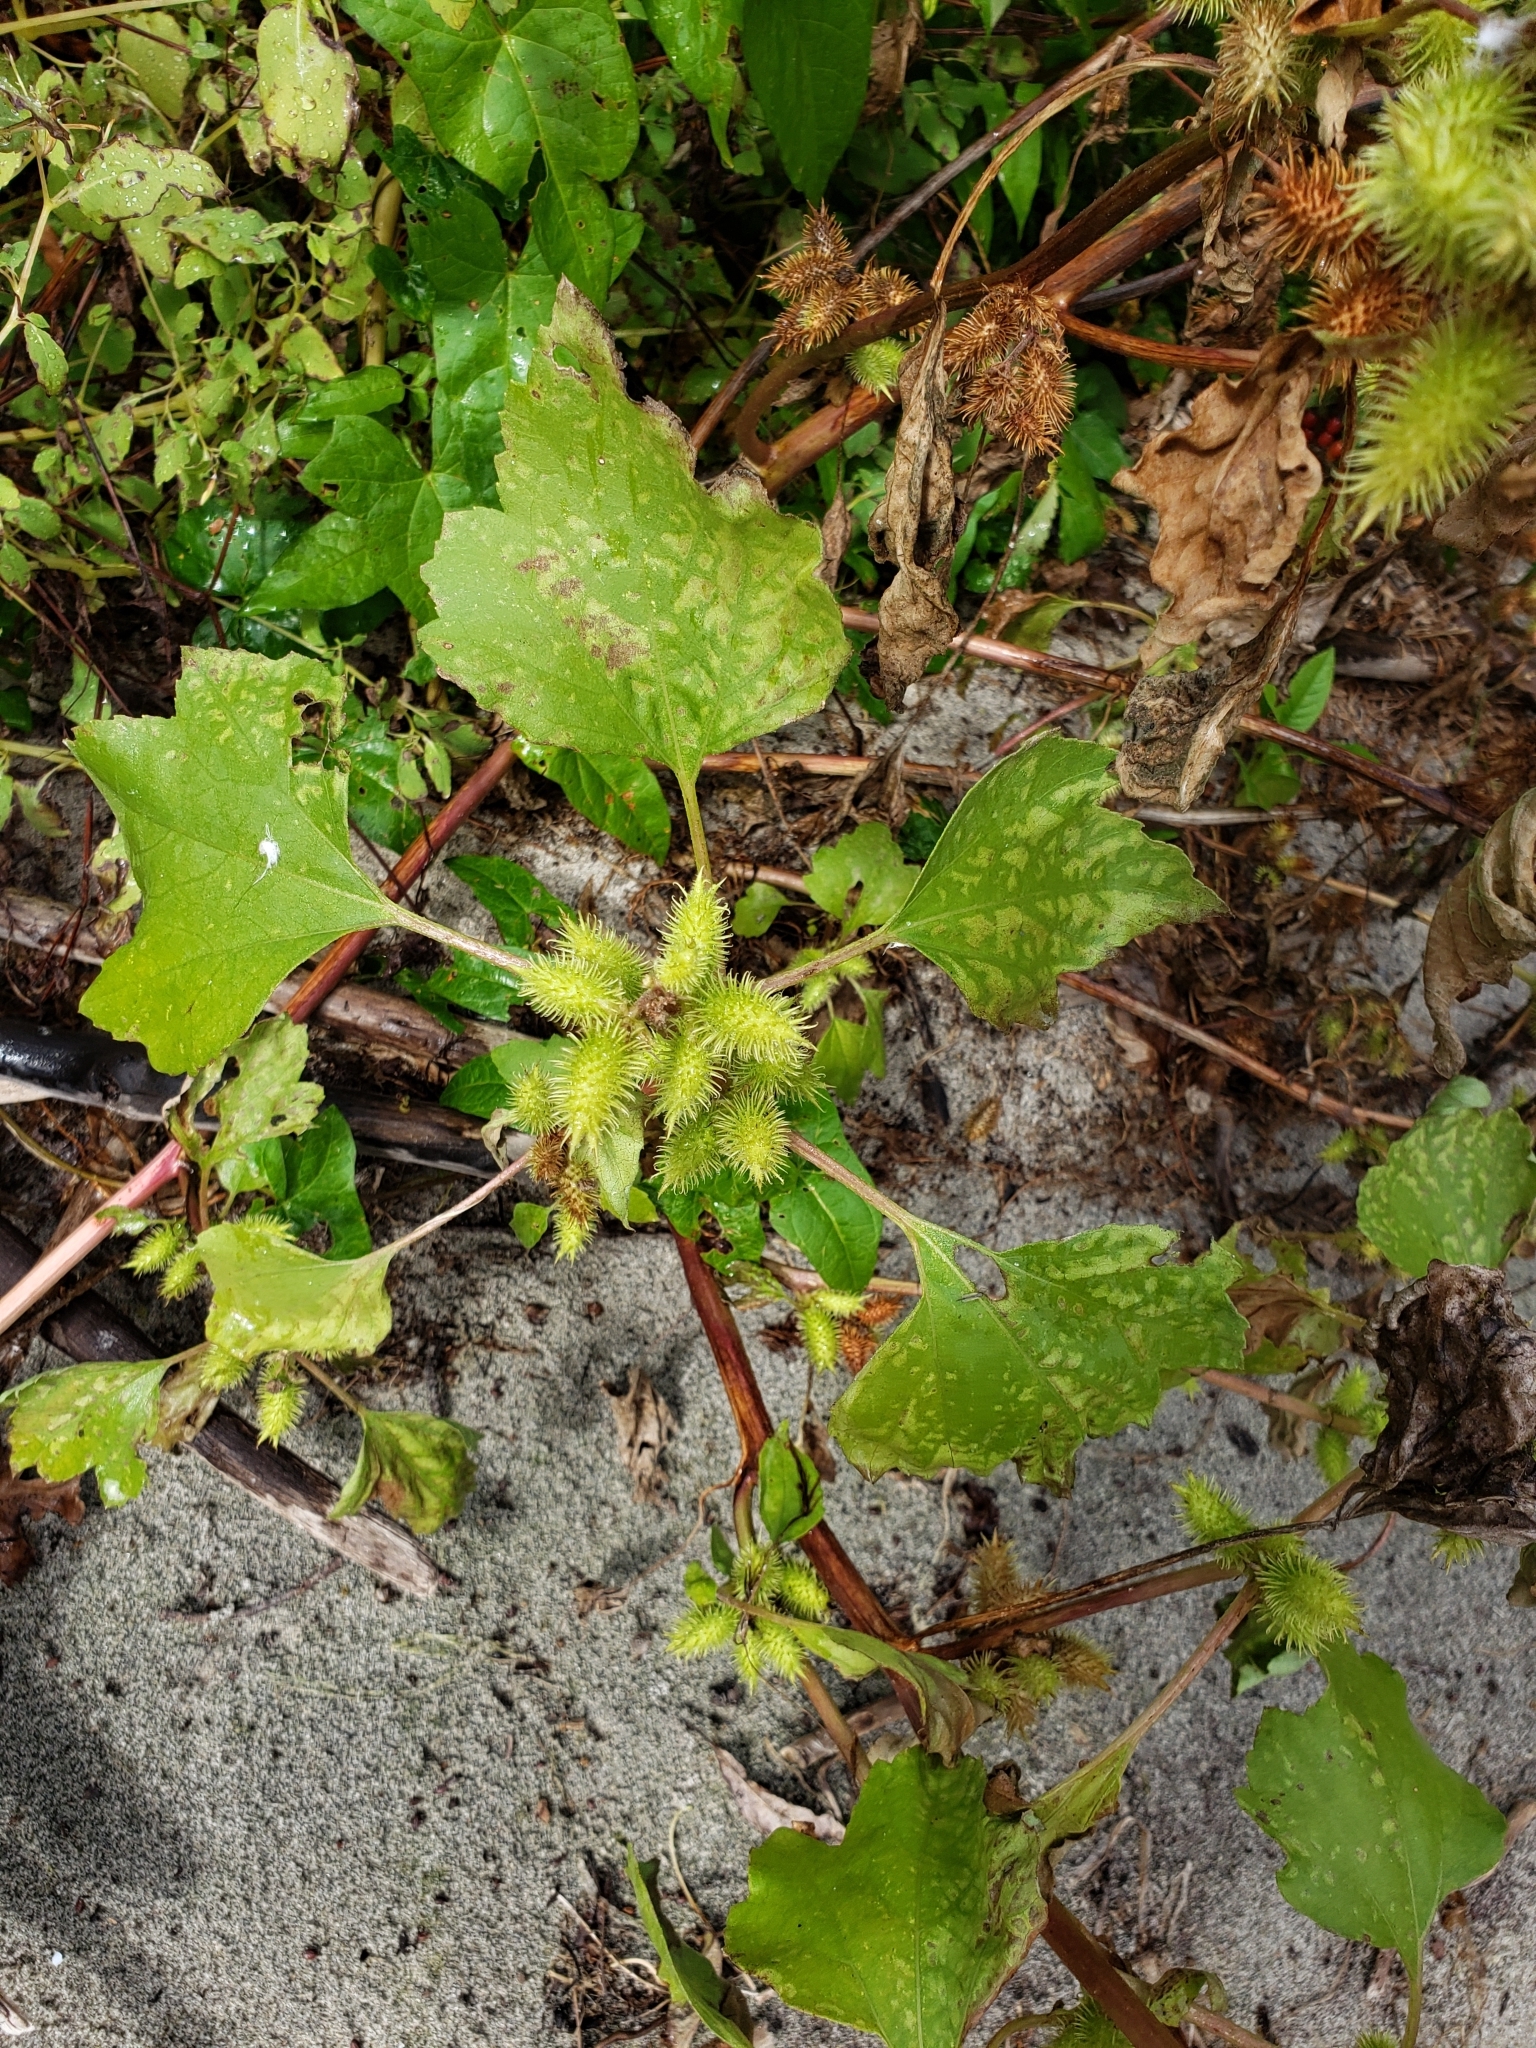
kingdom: Plantae
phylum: Tracheophyta
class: Magnoliopsida
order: Asterales
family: Asteraceae
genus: Xanthium
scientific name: Xanthium strumarium
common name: Rough cocklebur
